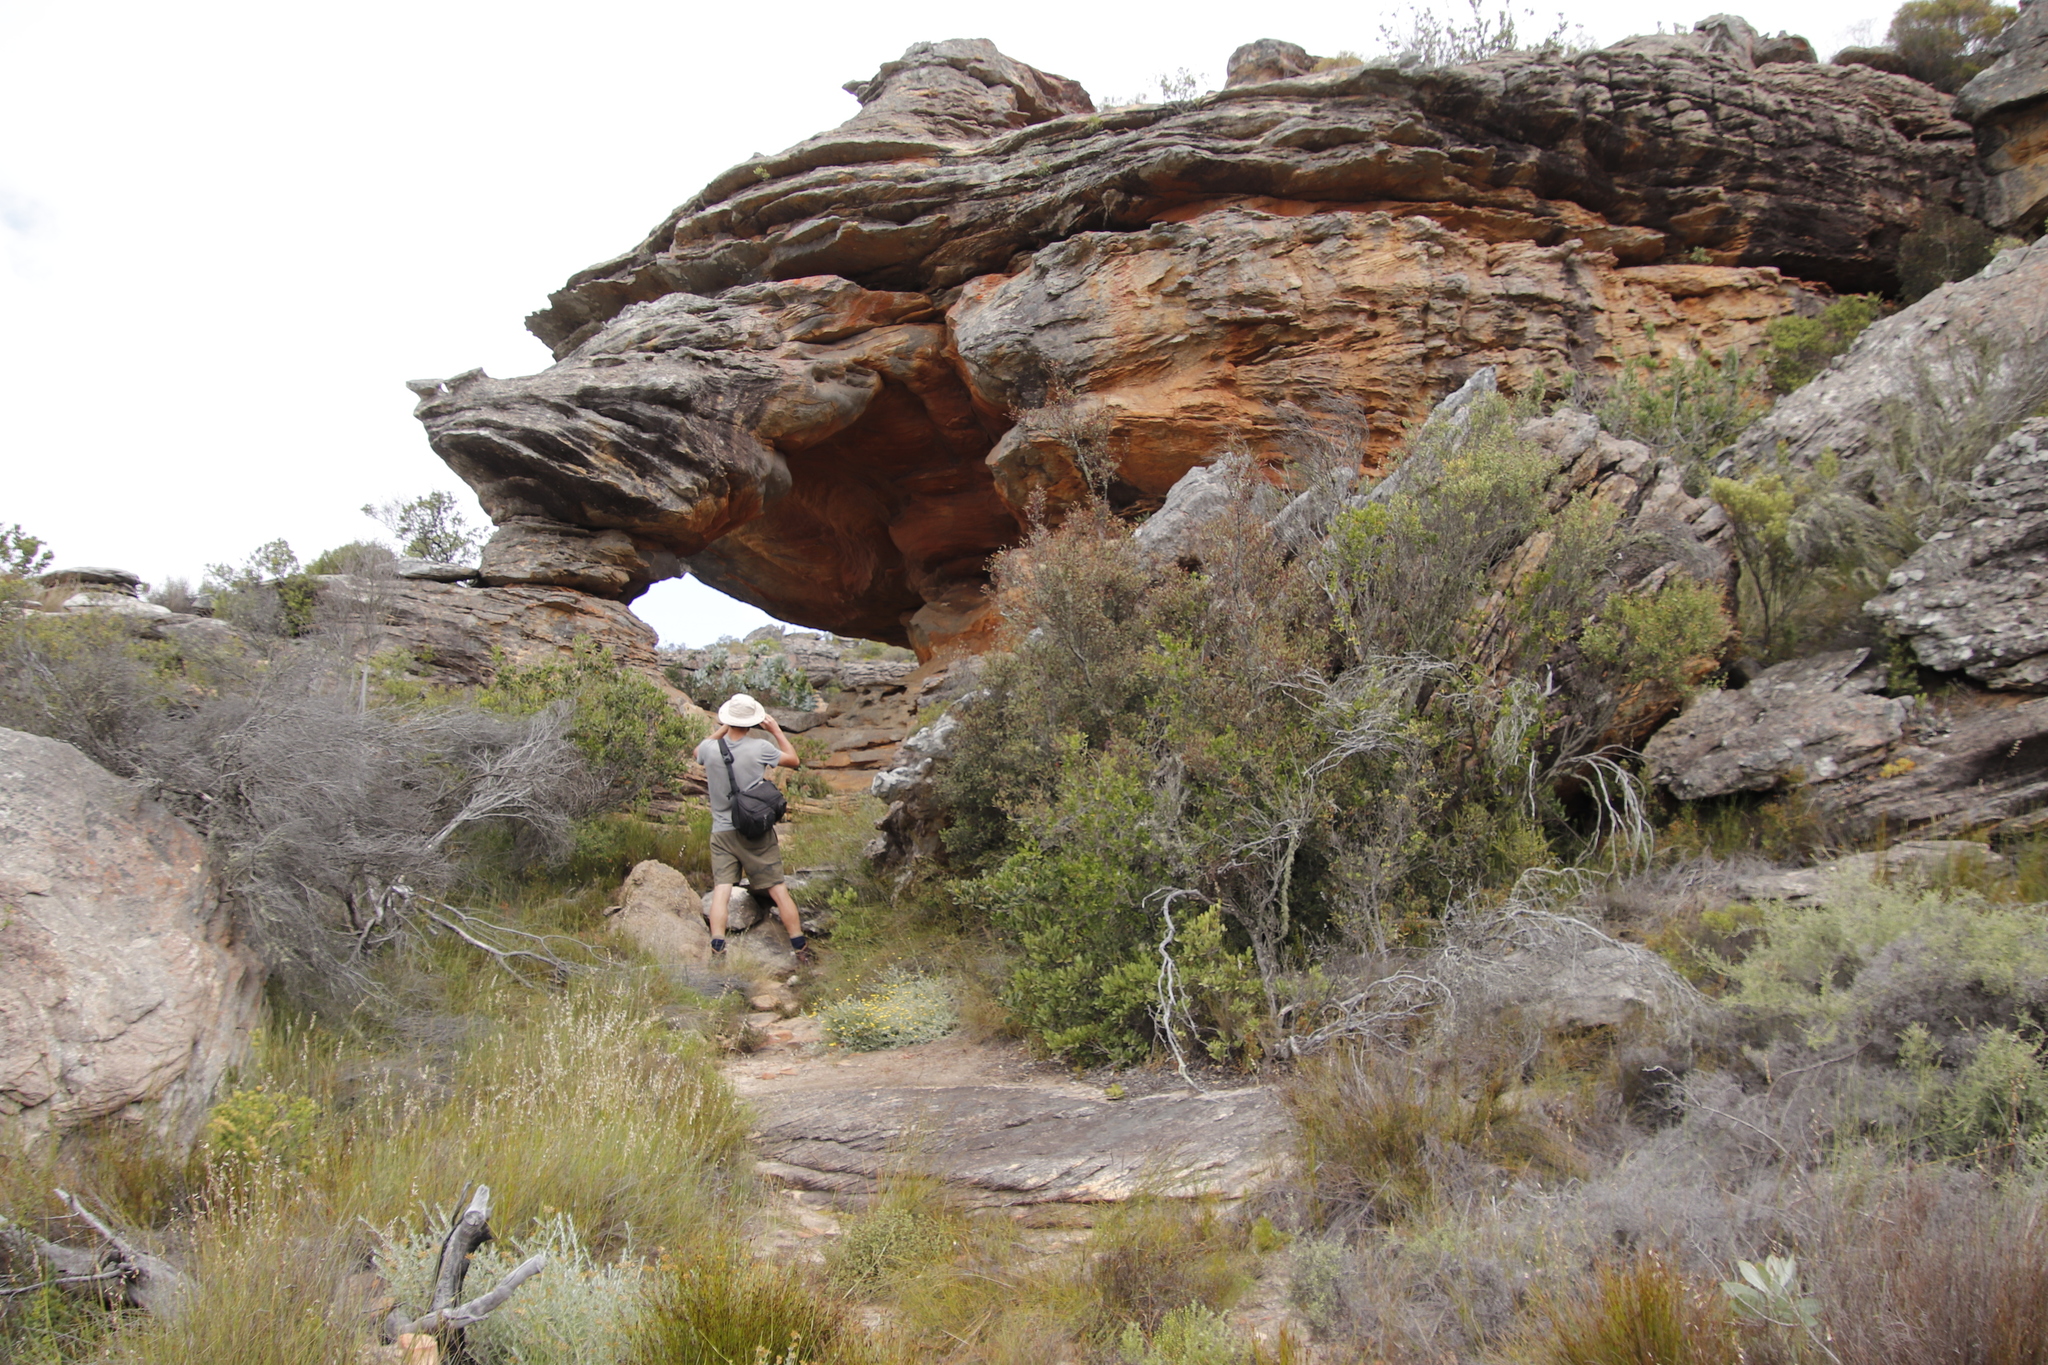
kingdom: Plantae
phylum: Tracheophyta
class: Magnoliopsida
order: Celastrales
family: Celastraceae
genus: Gymnosporia
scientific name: Gymnosporia acuminata
